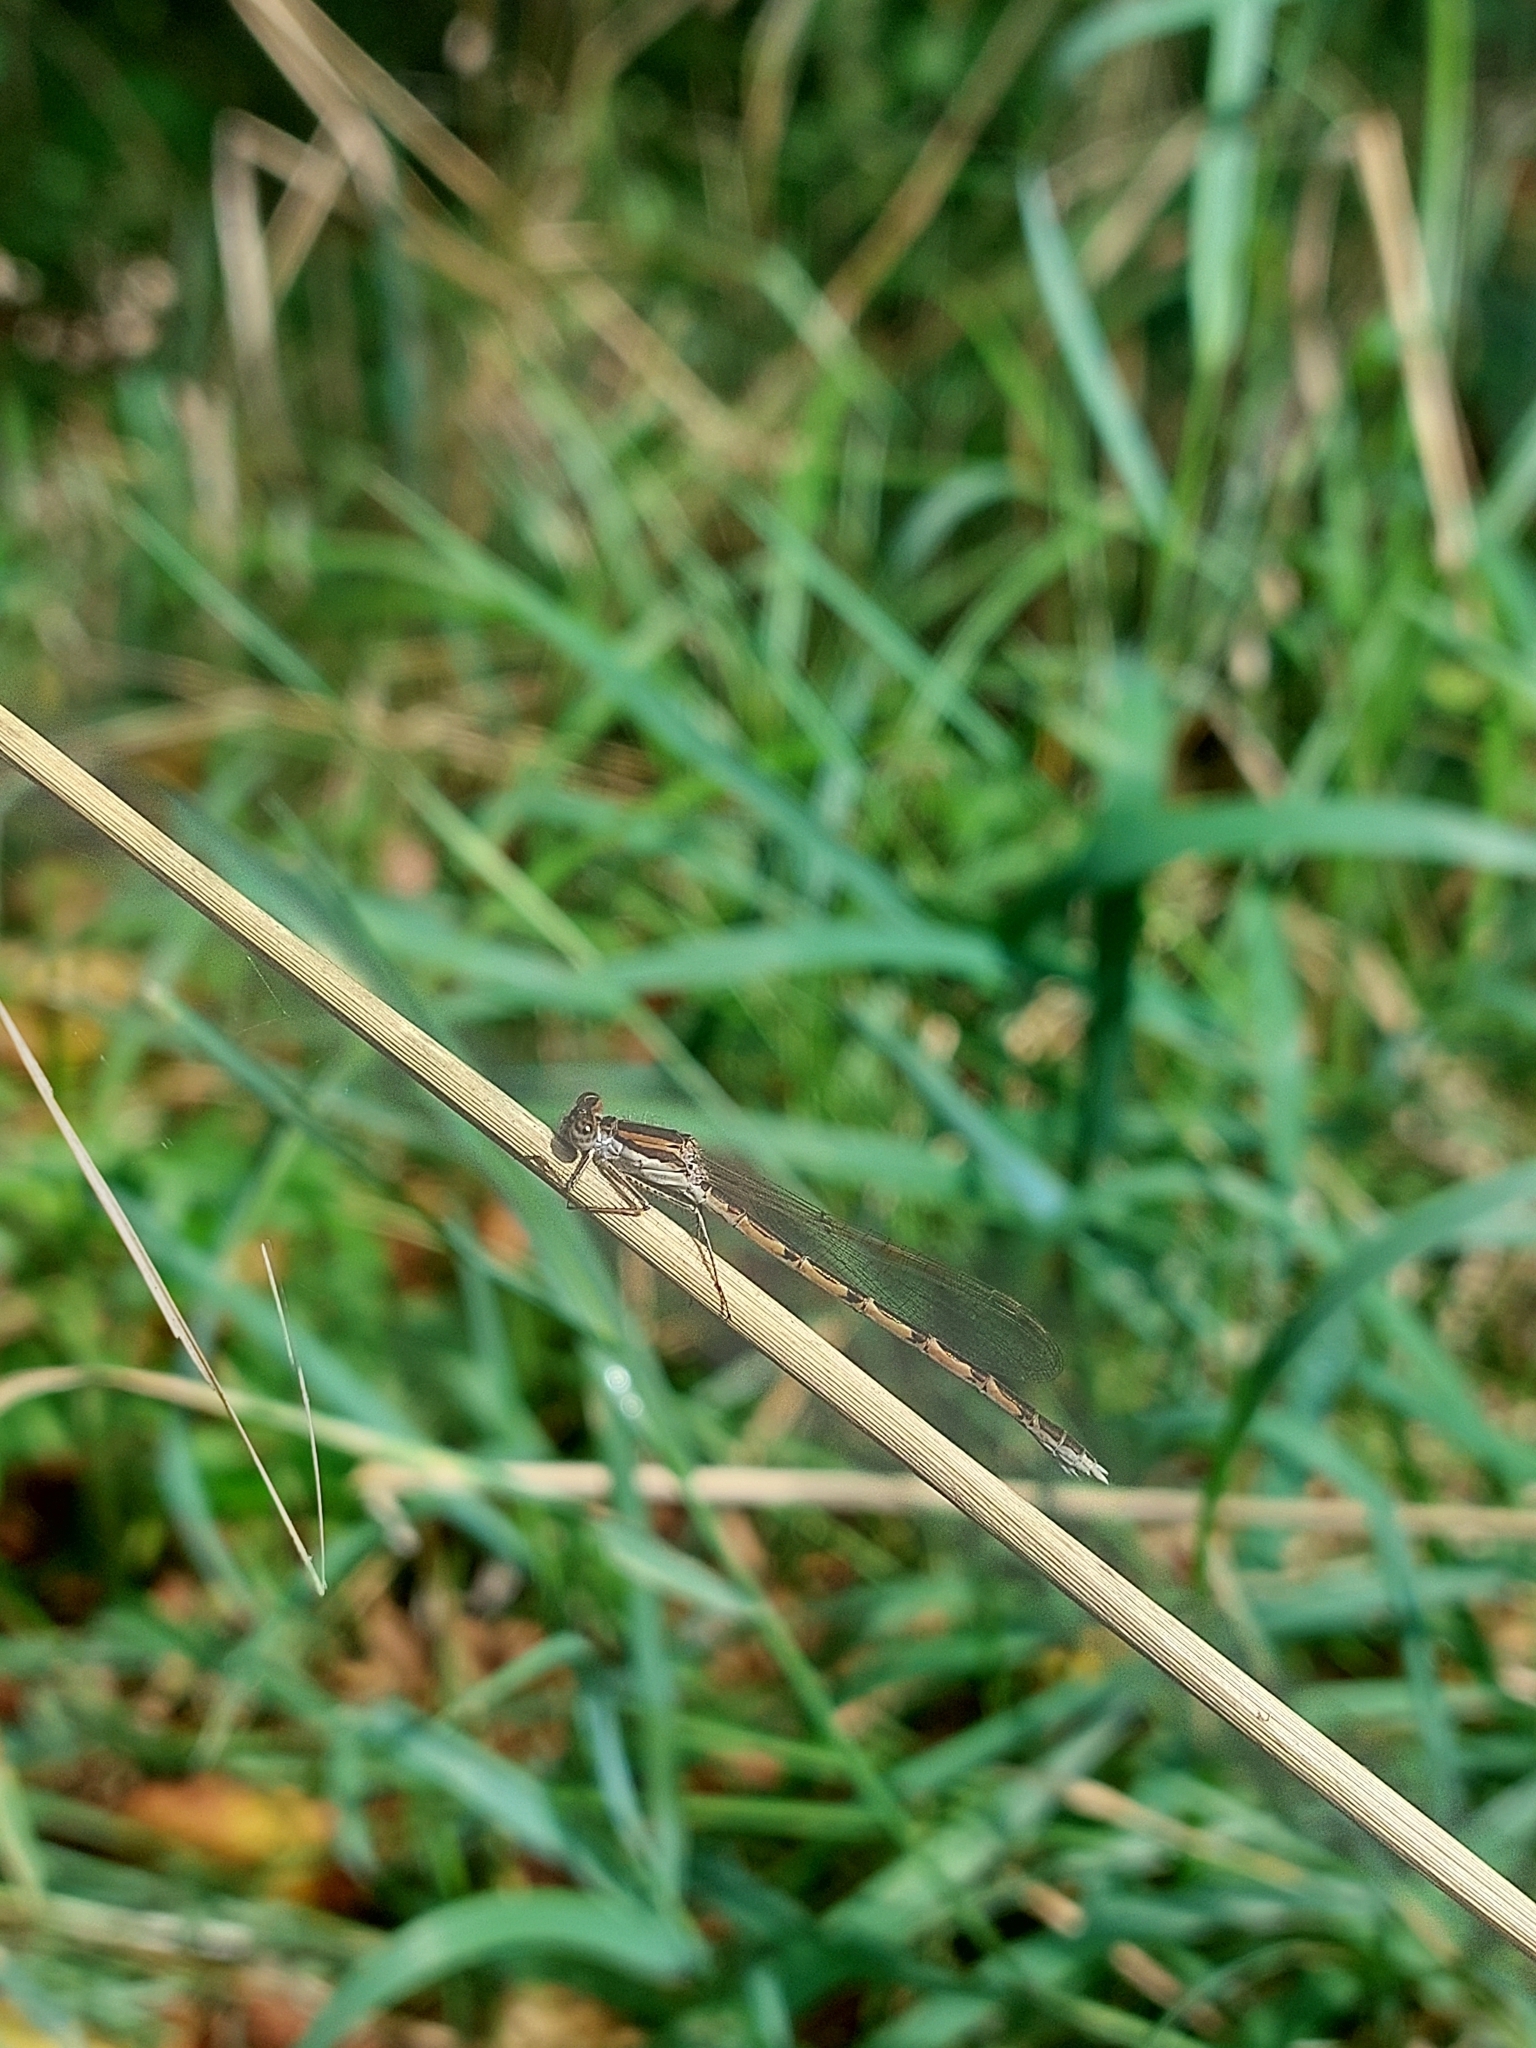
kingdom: Animalia
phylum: Arthropoda
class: Insecta
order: Odonata
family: Lestidae
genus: Sympecma
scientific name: Sympecma fusca
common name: Common winter damsel
